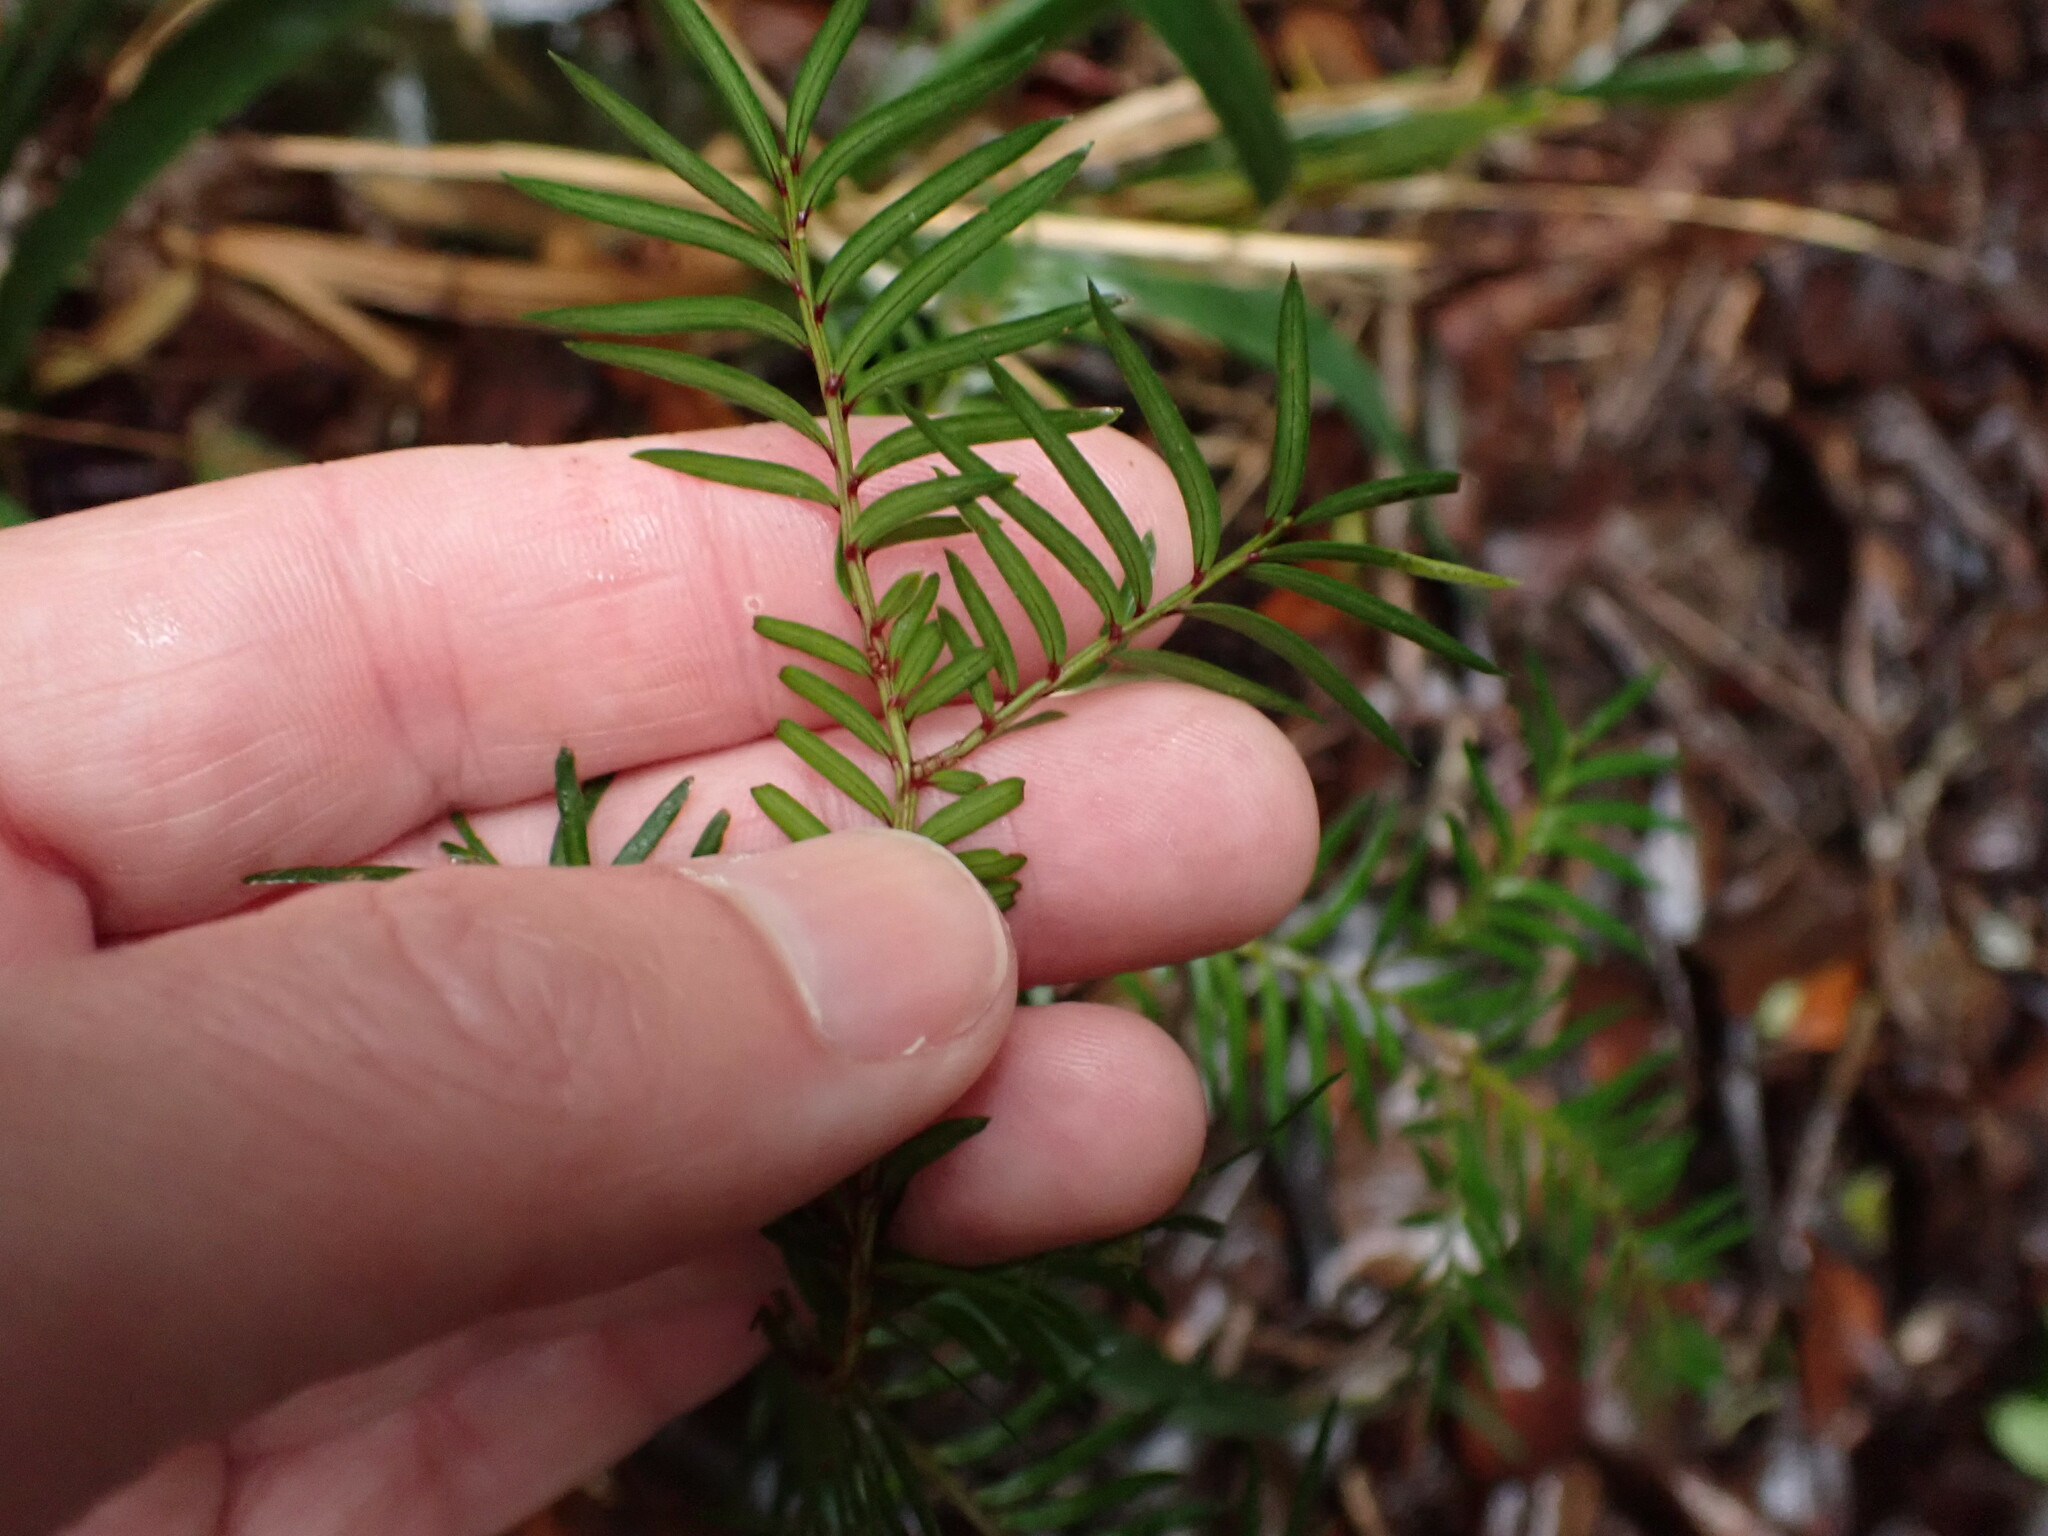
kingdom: Plantae
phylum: Tracheophyta
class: Pinopsida
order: Pinales
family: Podocarpaceae
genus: Prumnopitys
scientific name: Prumnopitys ferruginea
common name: Brown pine
